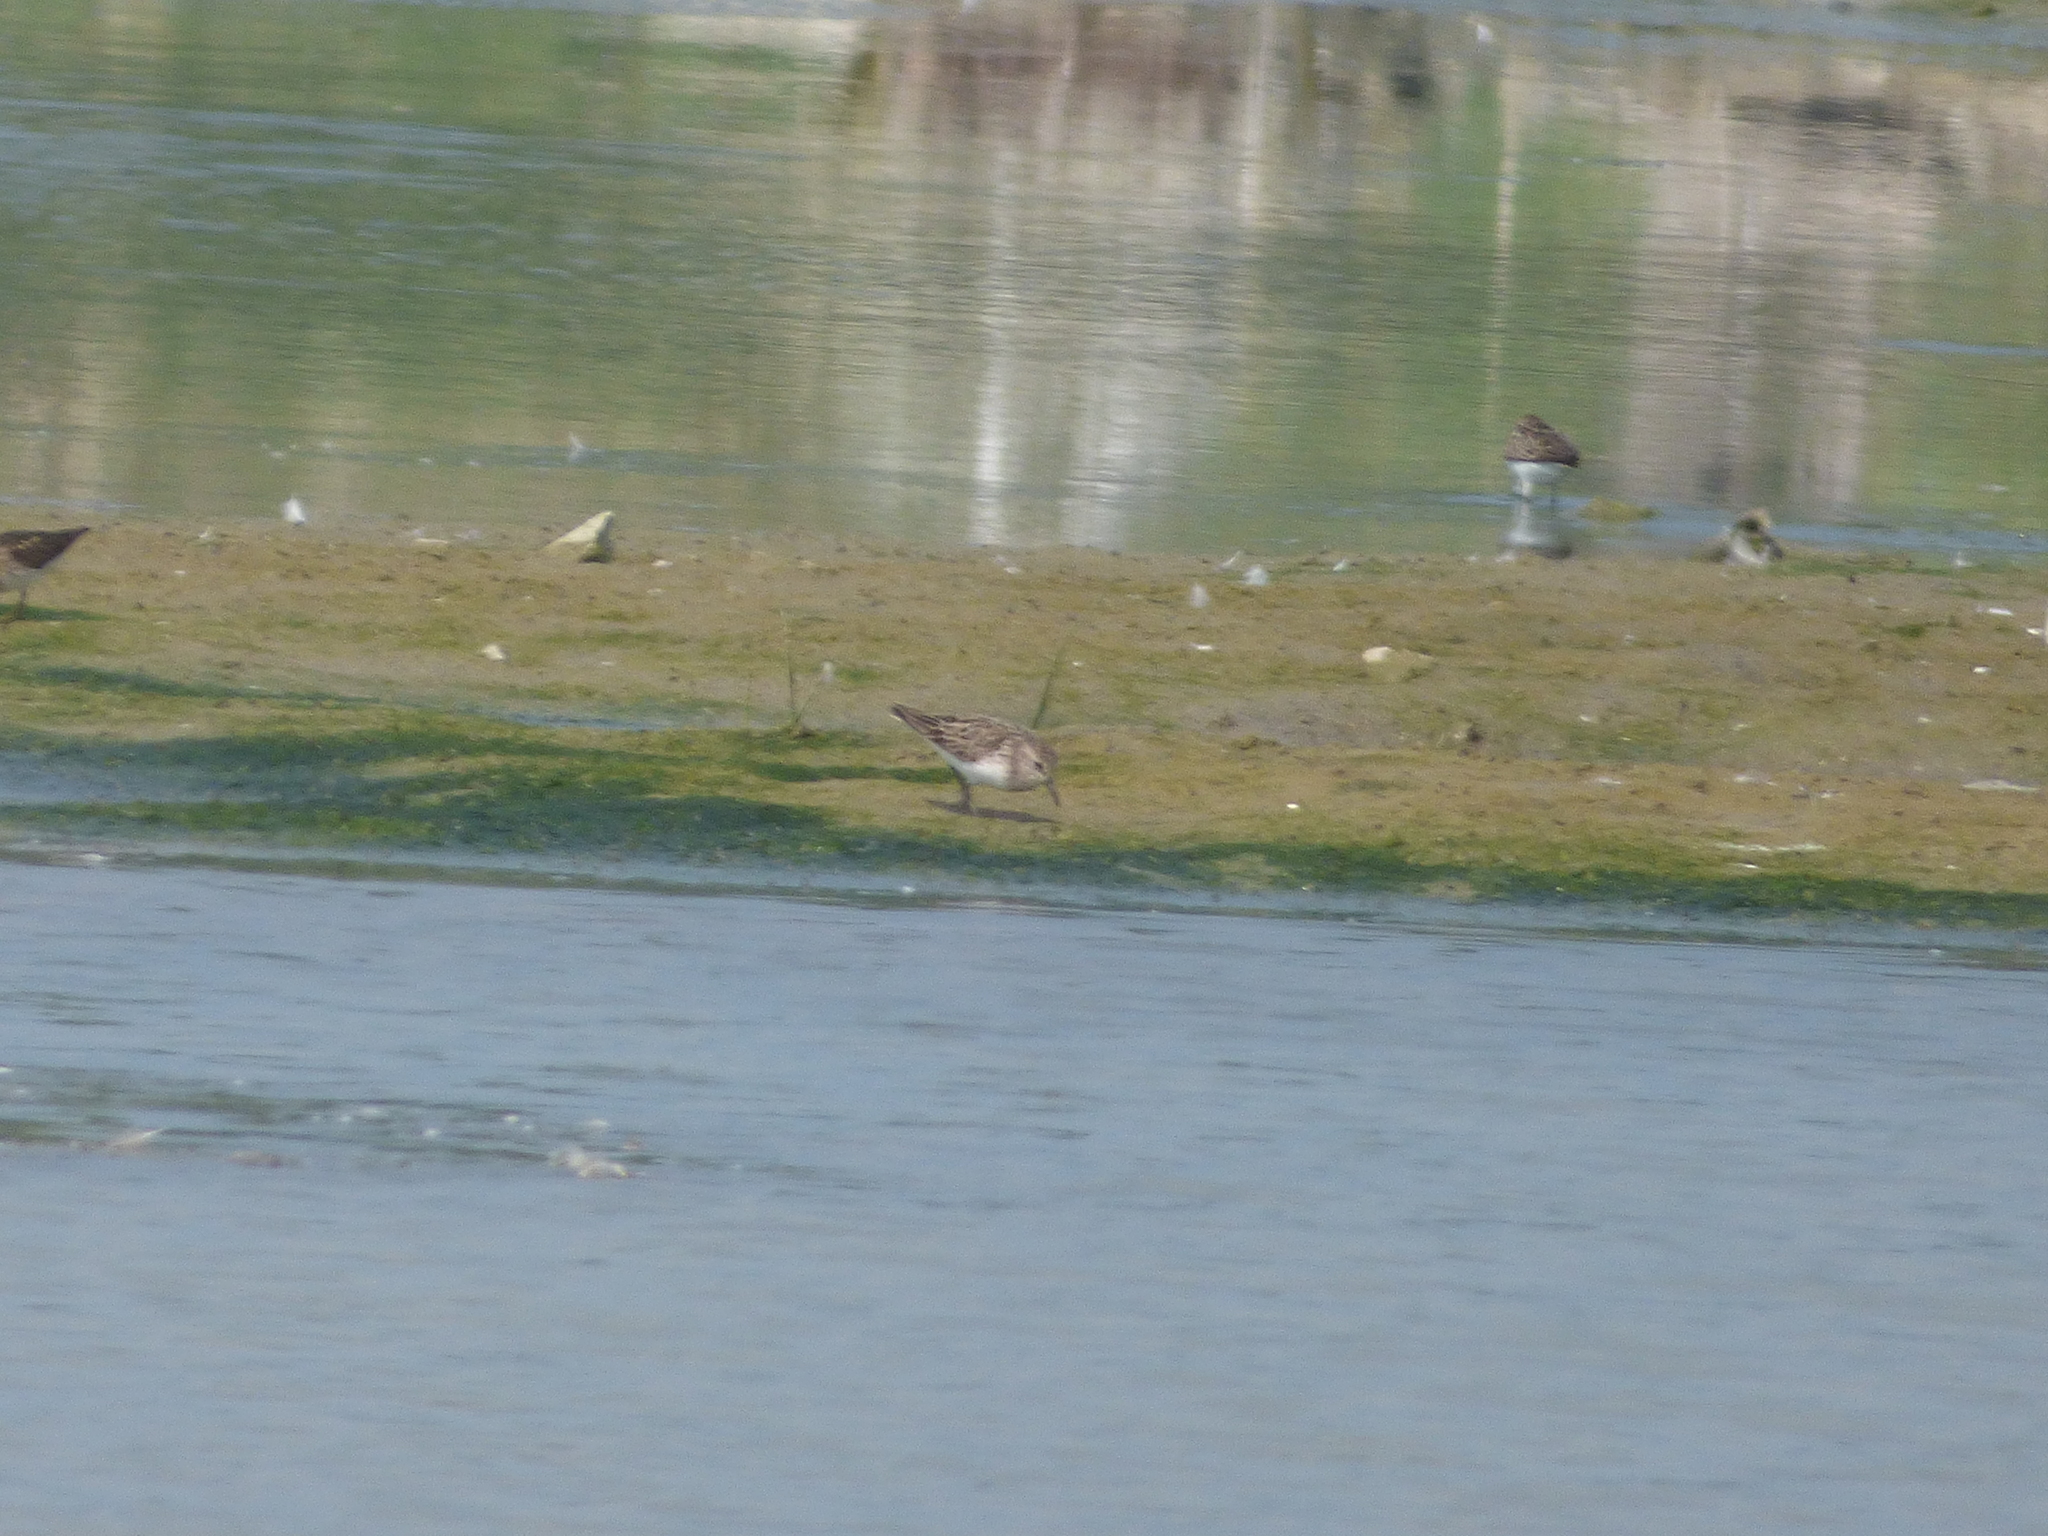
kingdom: Animalia
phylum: Chordata
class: Aves
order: Charadriiformes
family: Scolopacidae
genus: Calidris
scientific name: Calidris pusilla
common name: Semipalmated sandpiper
